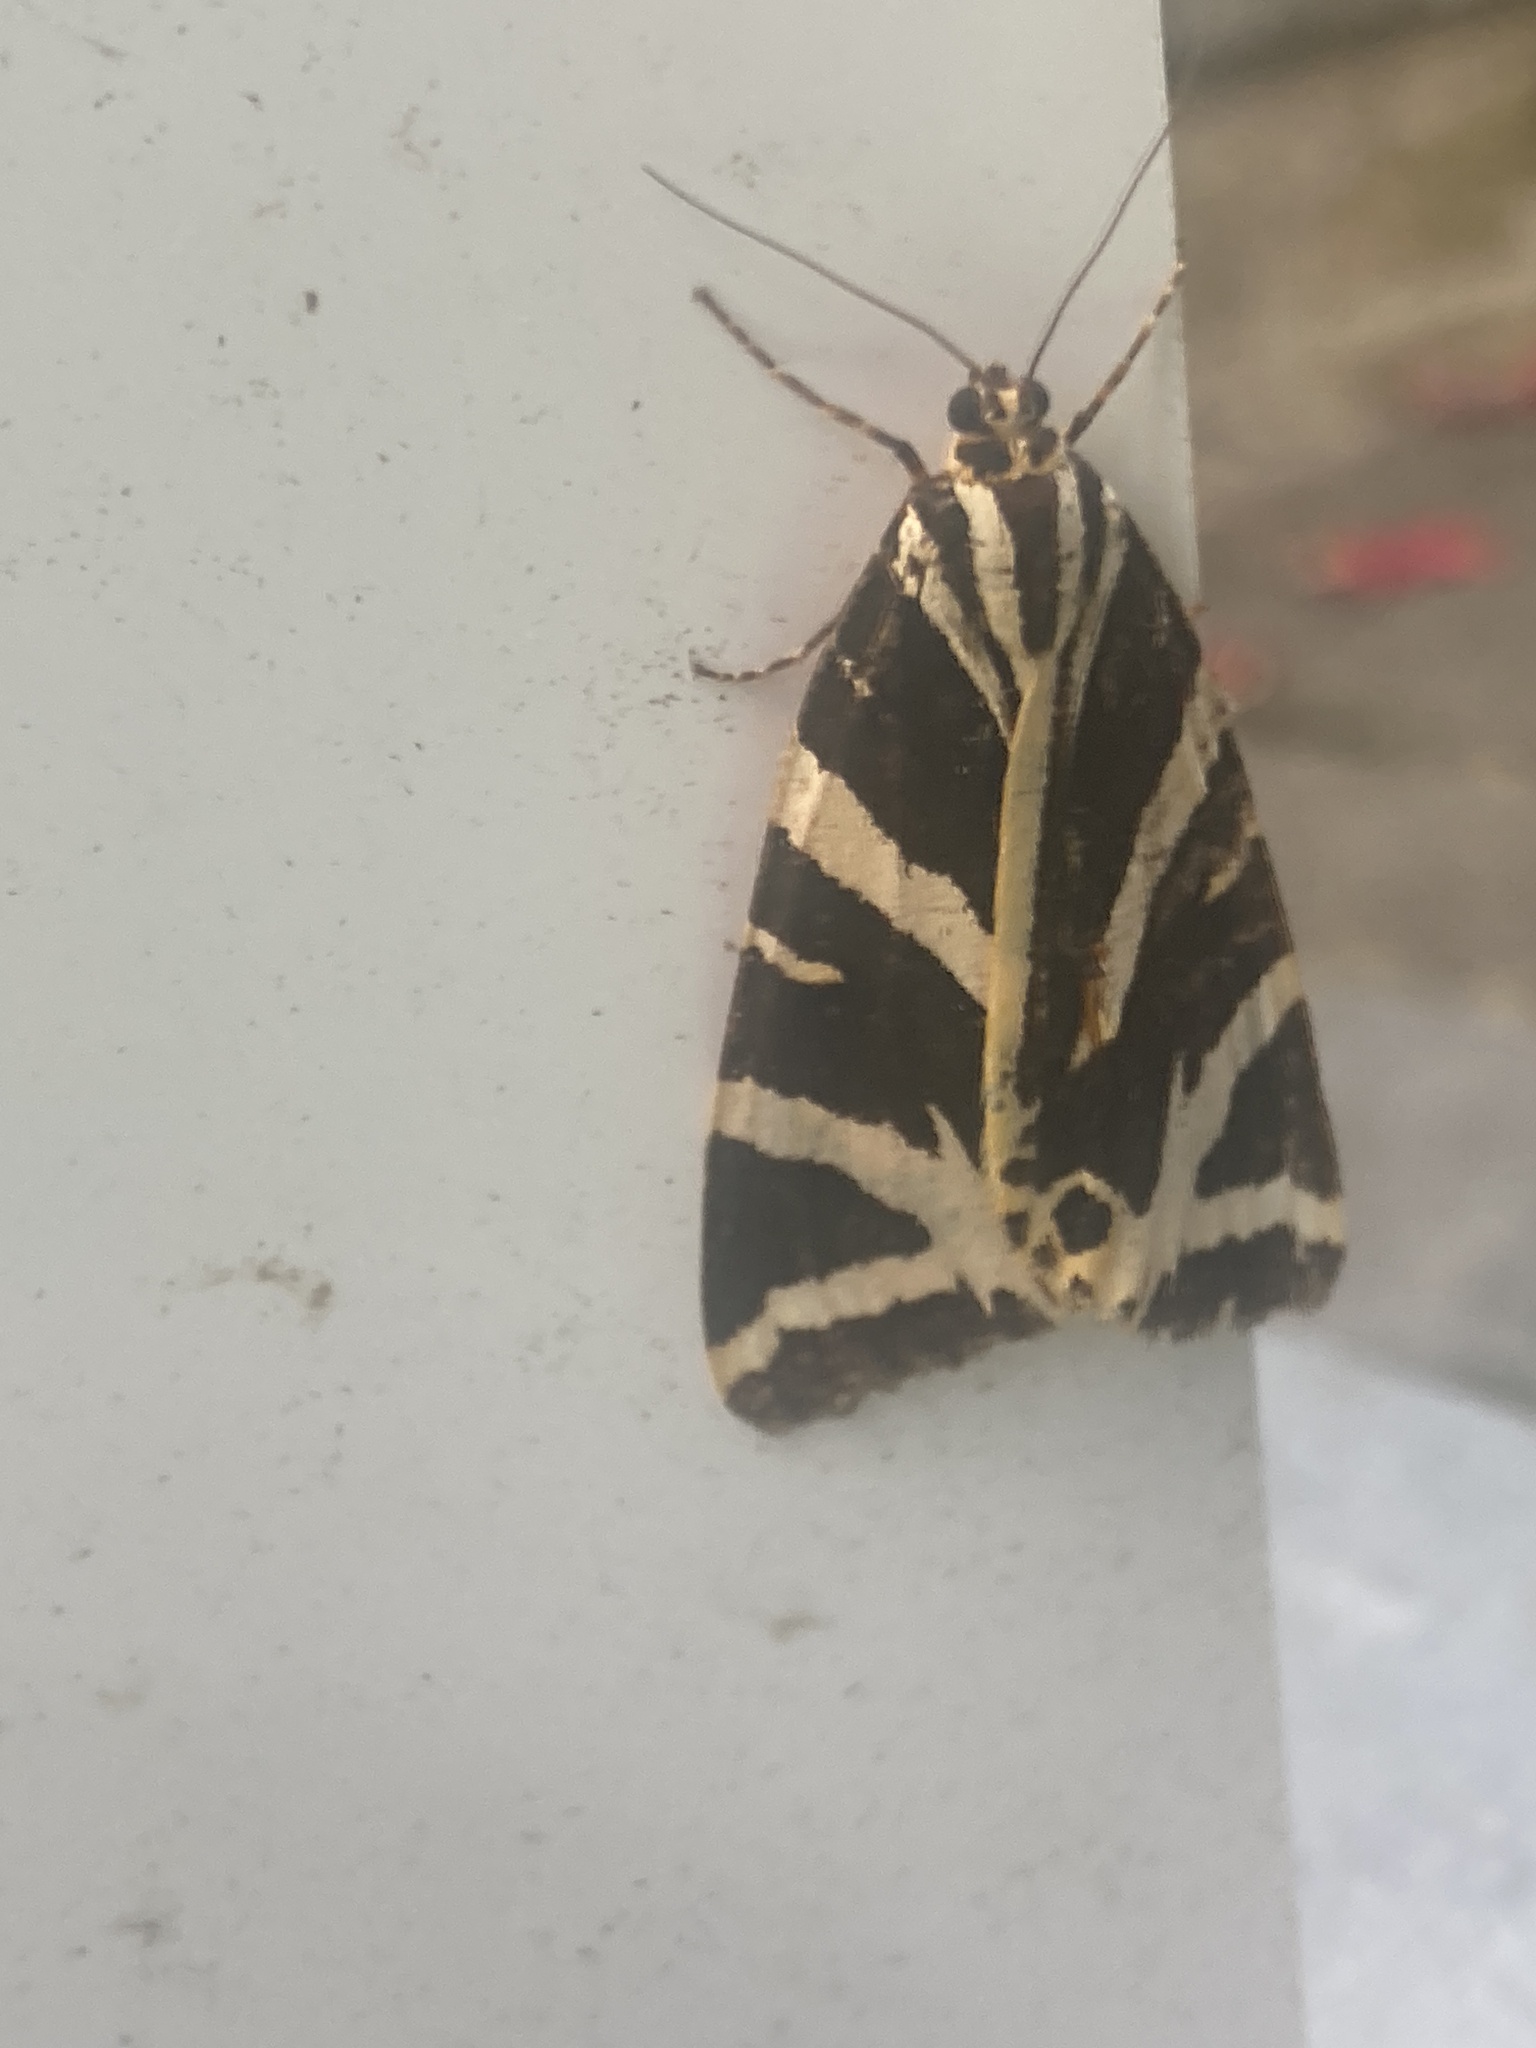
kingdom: Animalia
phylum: Arthropoda
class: Insecta
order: Lepidoptera
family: Erebidae
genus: Euplagia
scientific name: Euplagia quadripunctaria
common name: Jersey tiger
